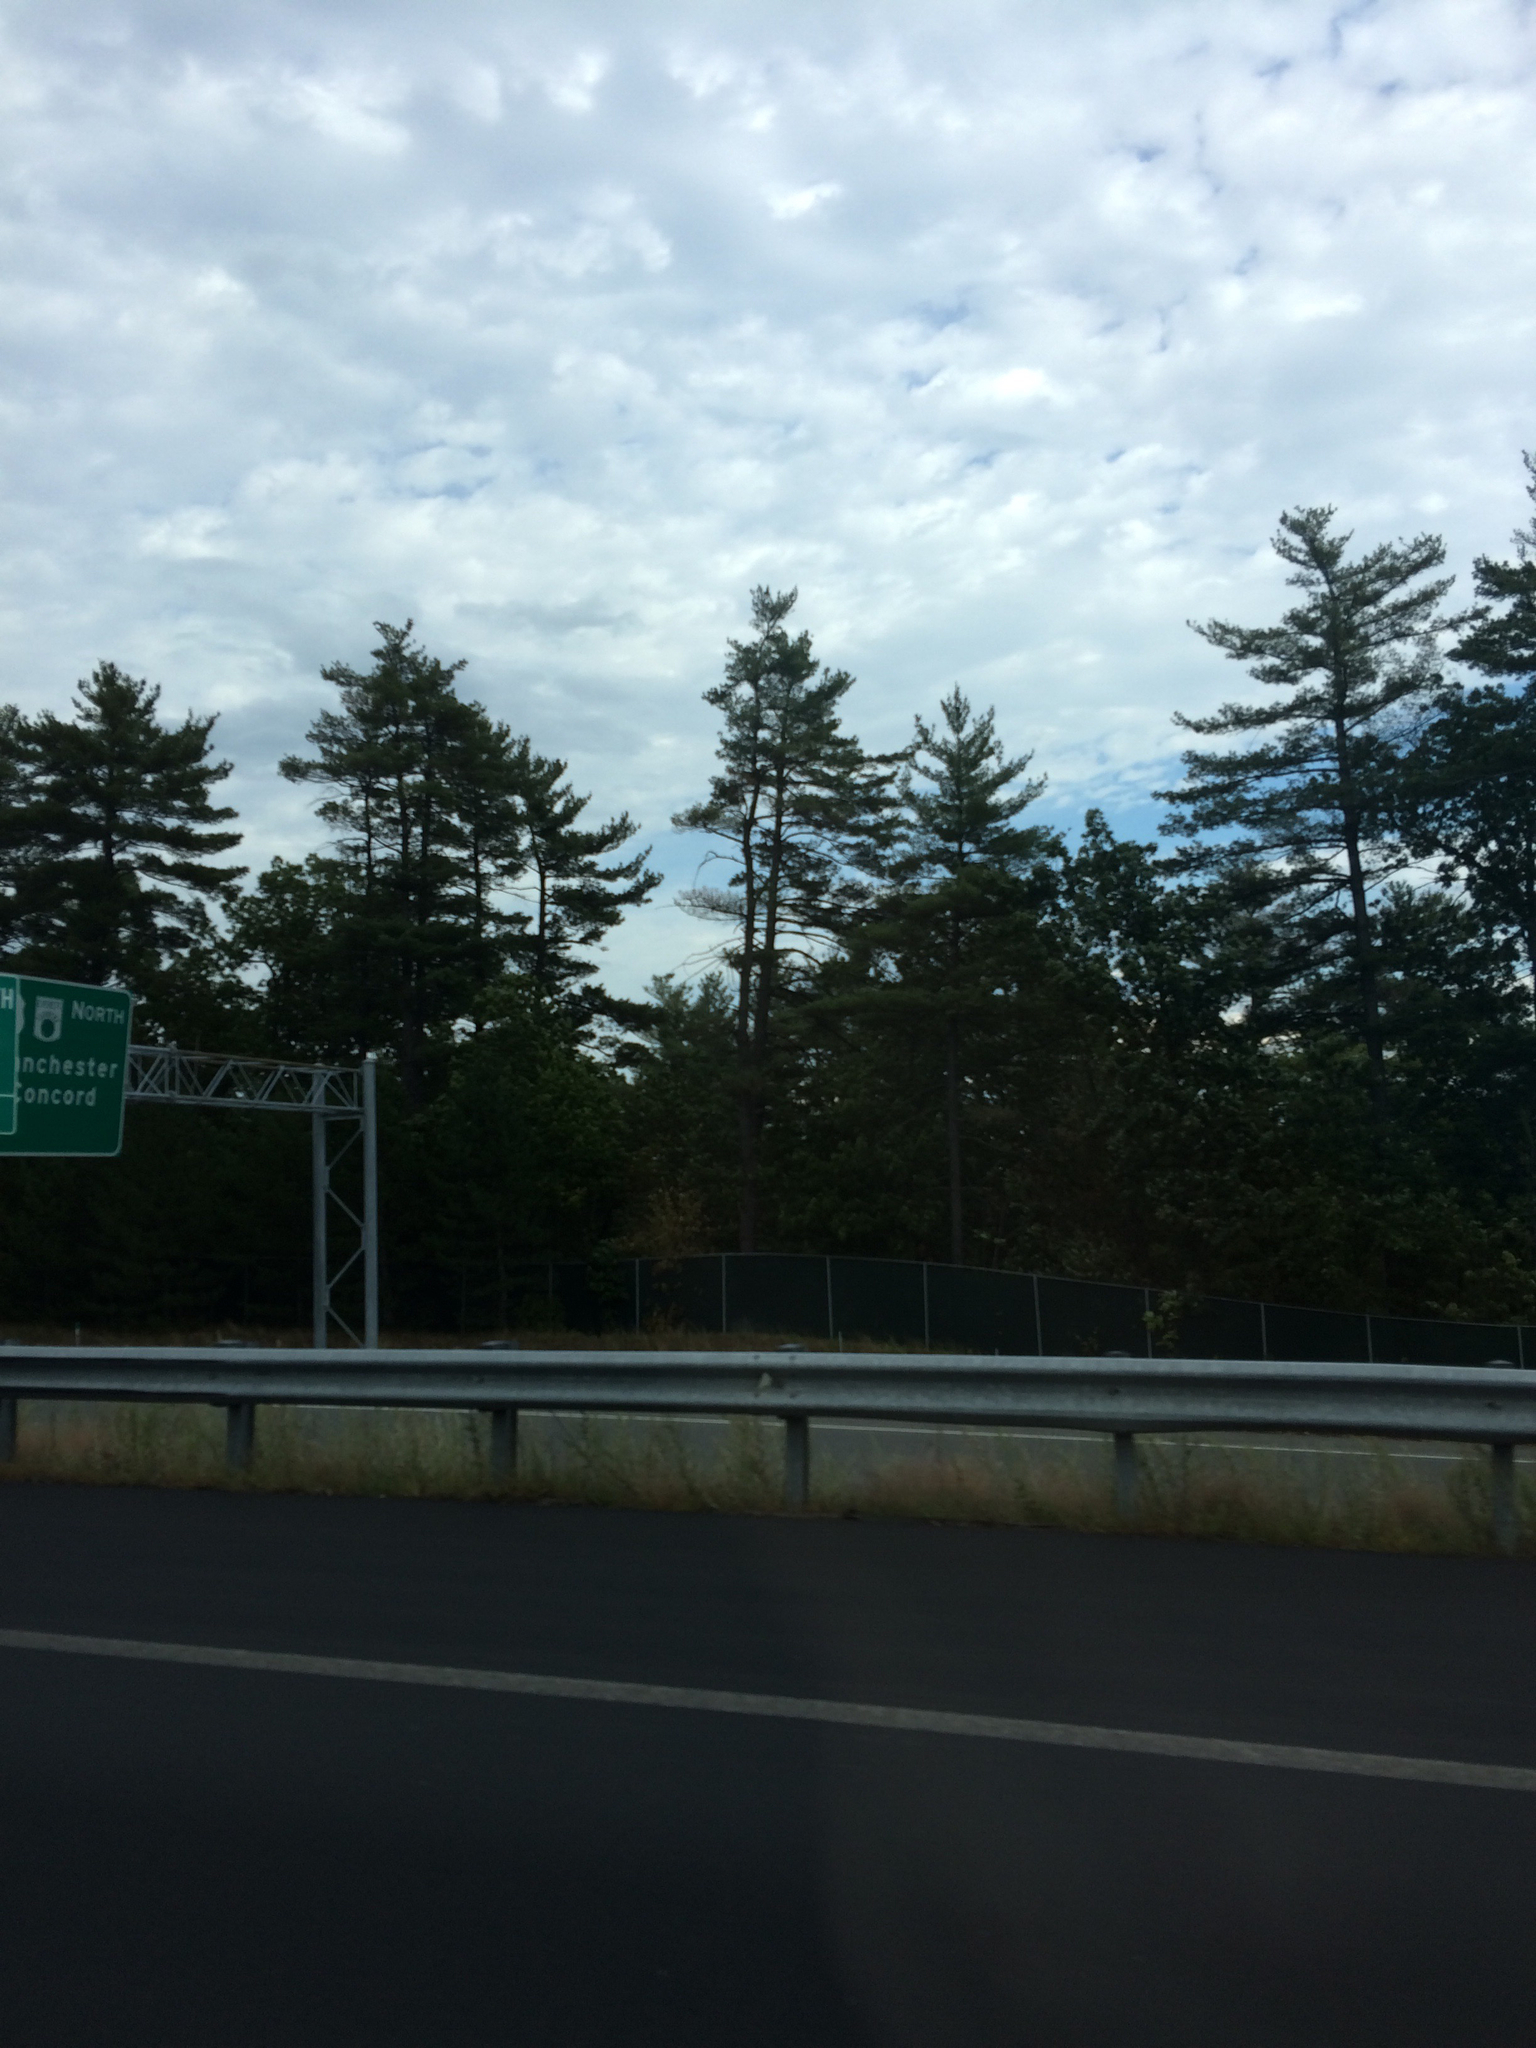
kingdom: Plantae
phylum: Tracheophyta
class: Pinopsida
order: Pinales
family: Pinaceae
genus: Pinus
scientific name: Pinus strobus
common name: Weymouth pine
